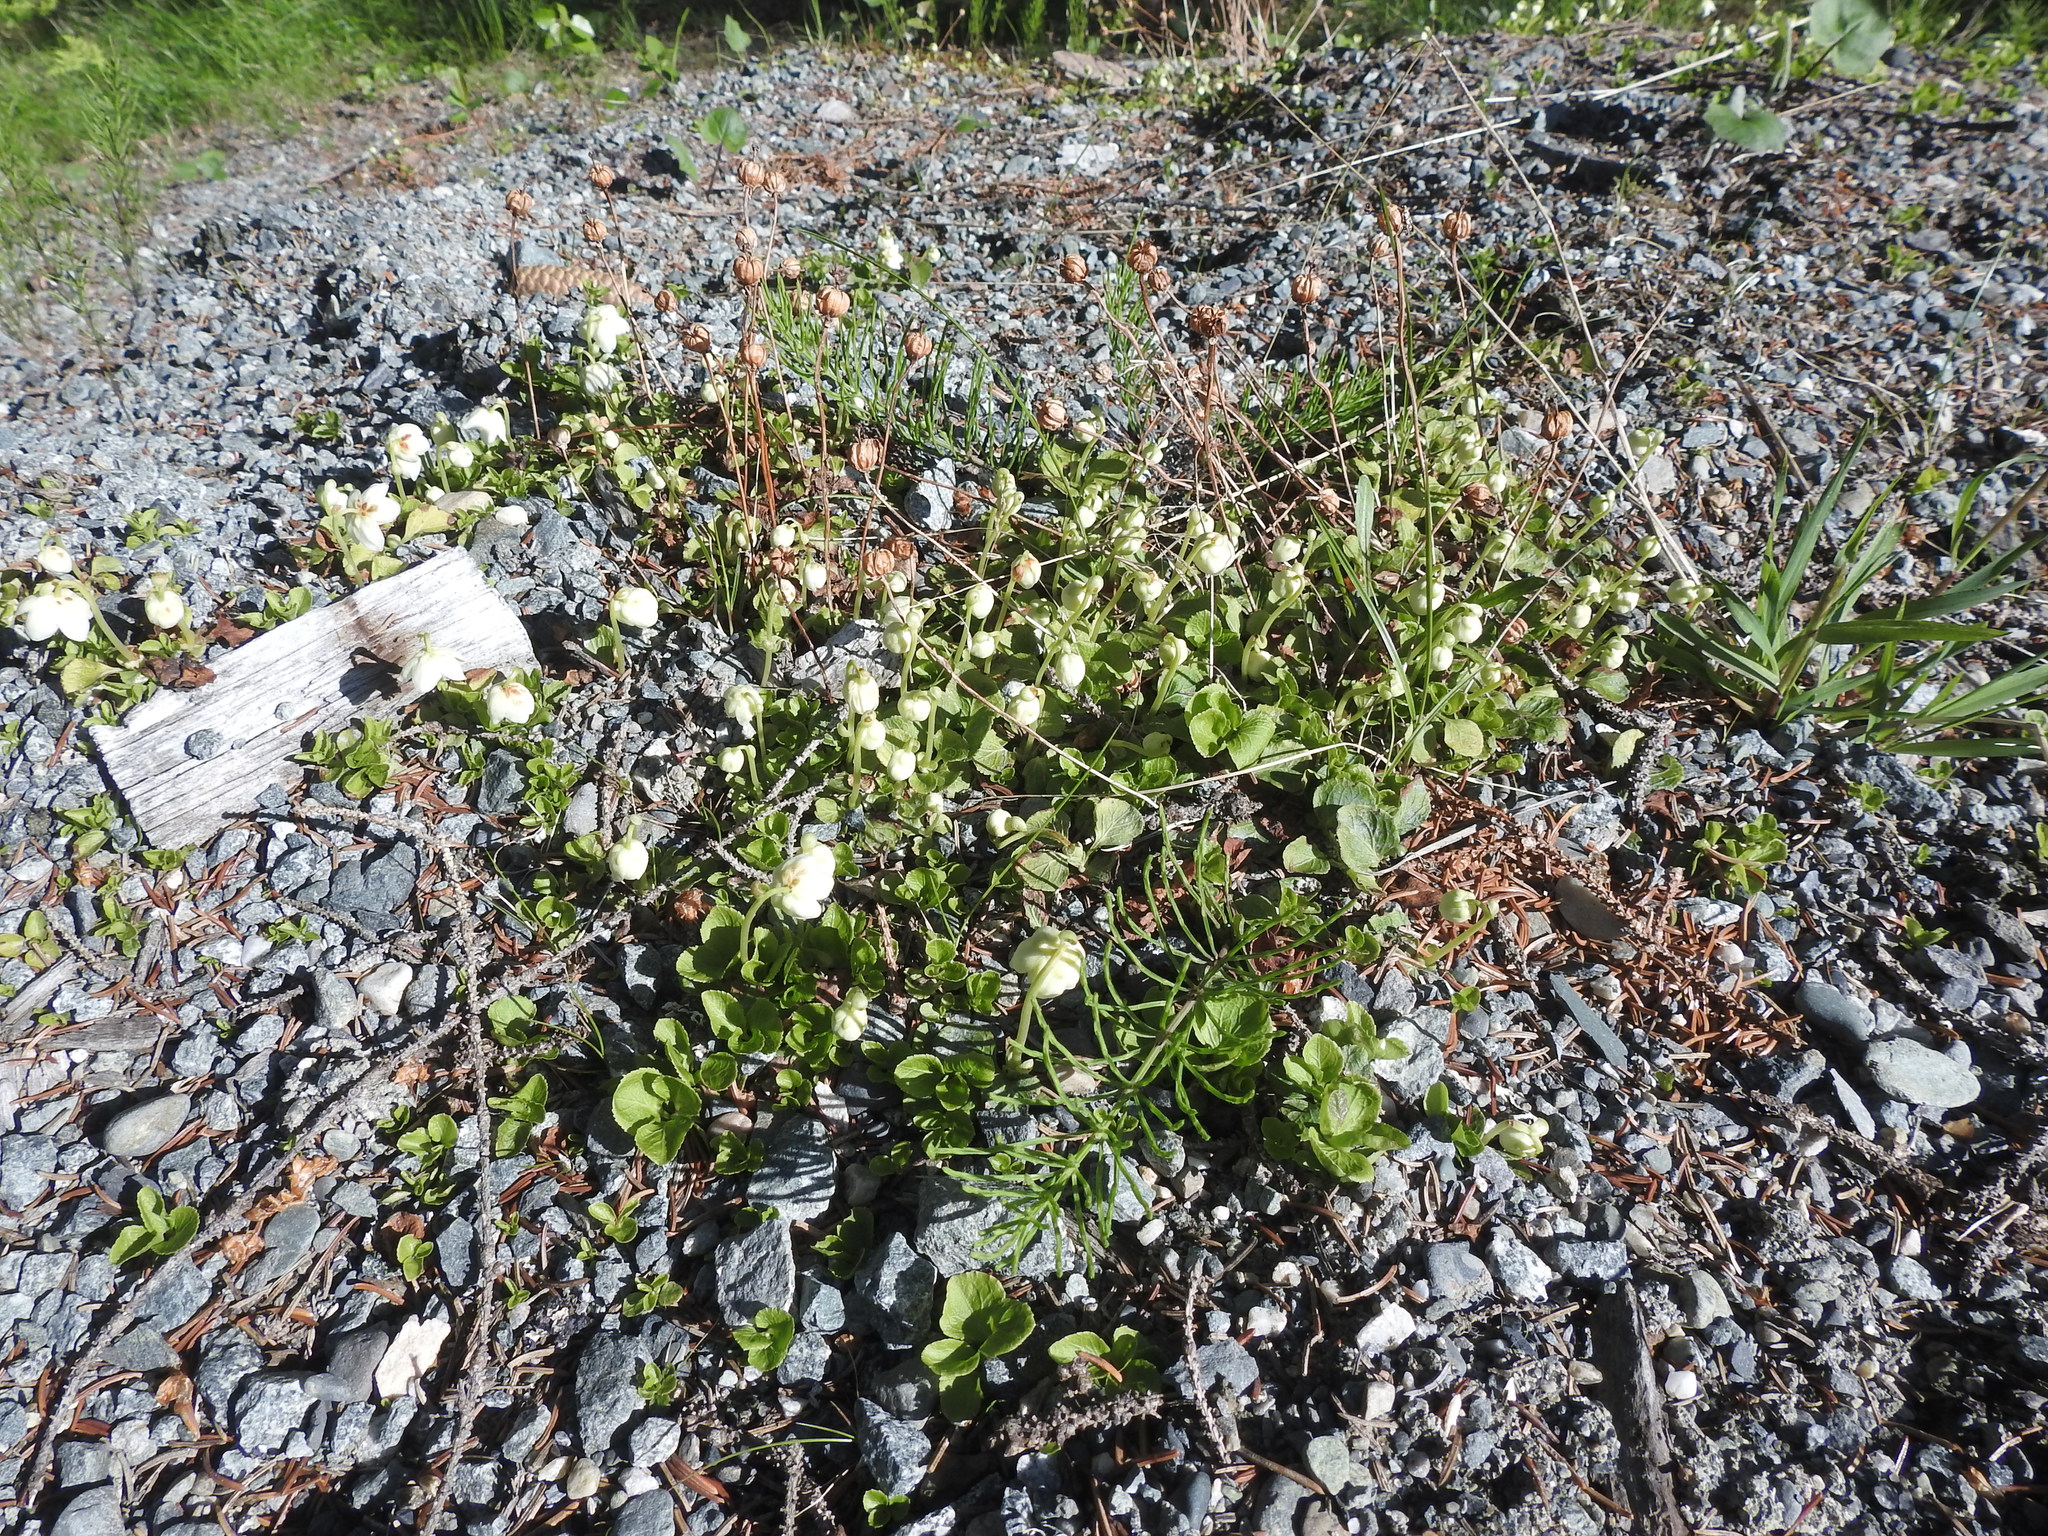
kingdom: Plantae
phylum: Tracheophyta
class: Magnoliopsida
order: Ericales
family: Ericaceae
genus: Moneses
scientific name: Moneses uniflora
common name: One-flowered wintergreen
